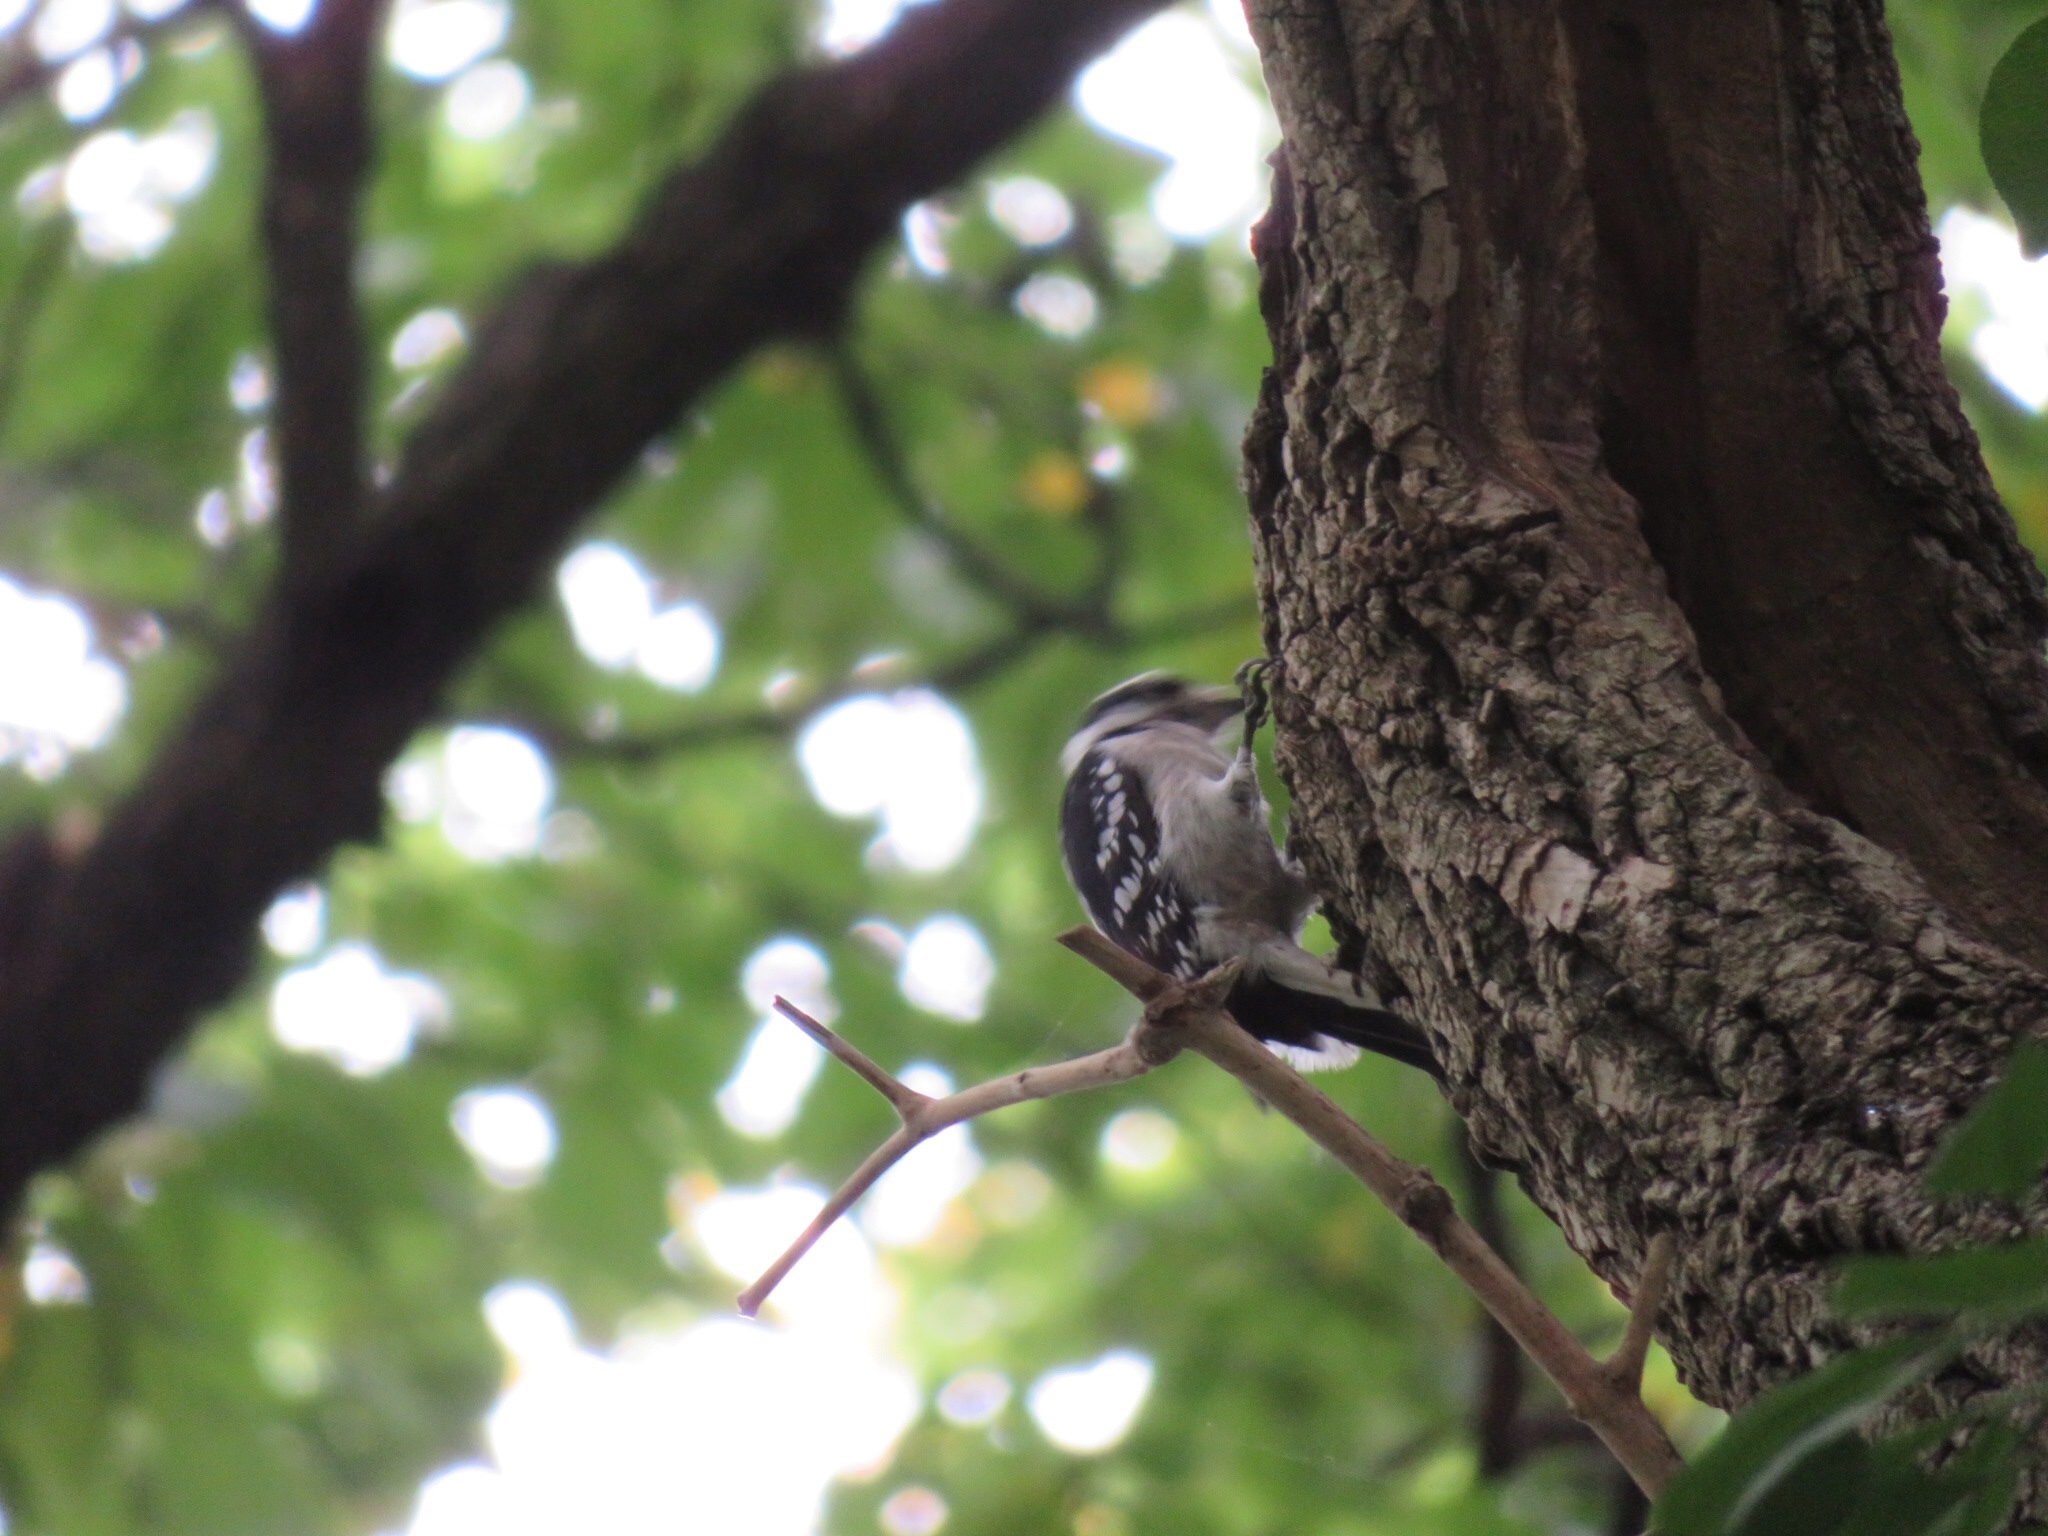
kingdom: Animalia
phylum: Chordata
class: Aves
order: Piciformes
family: Picidae
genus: Dryobates
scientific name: Dryobates pubescens
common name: Downy woodpecker
